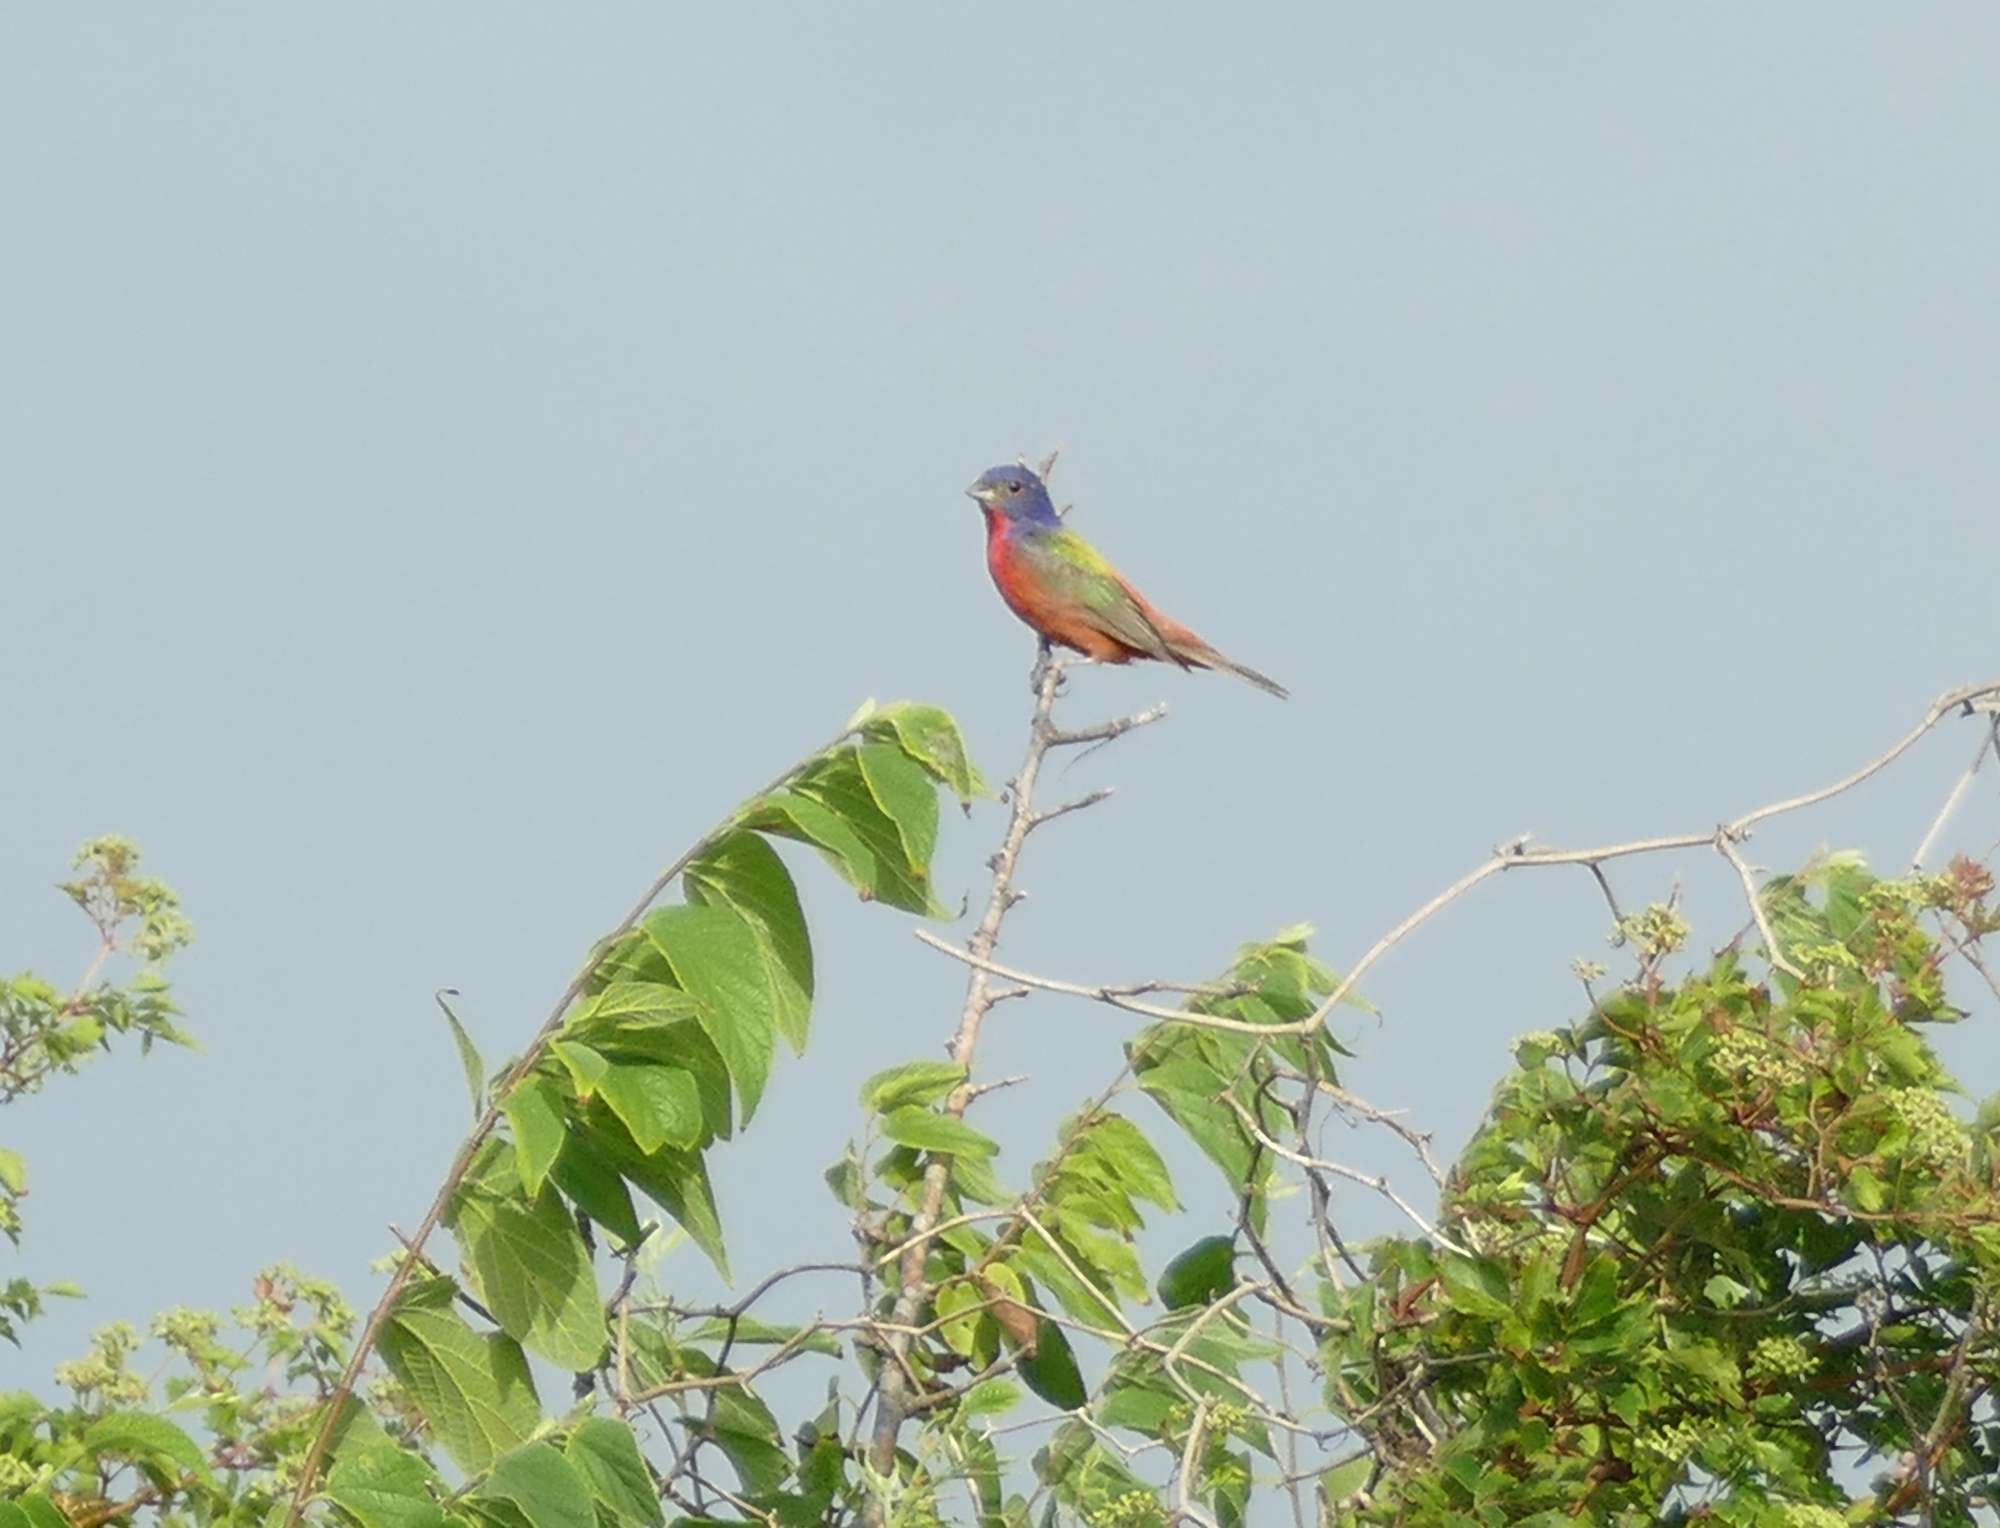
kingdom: Animalia
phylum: Chordata
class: Aves
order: Passeriformes
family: Cardinalidae
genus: Passerina
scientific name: Passerina ciris
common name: Painted bunting
